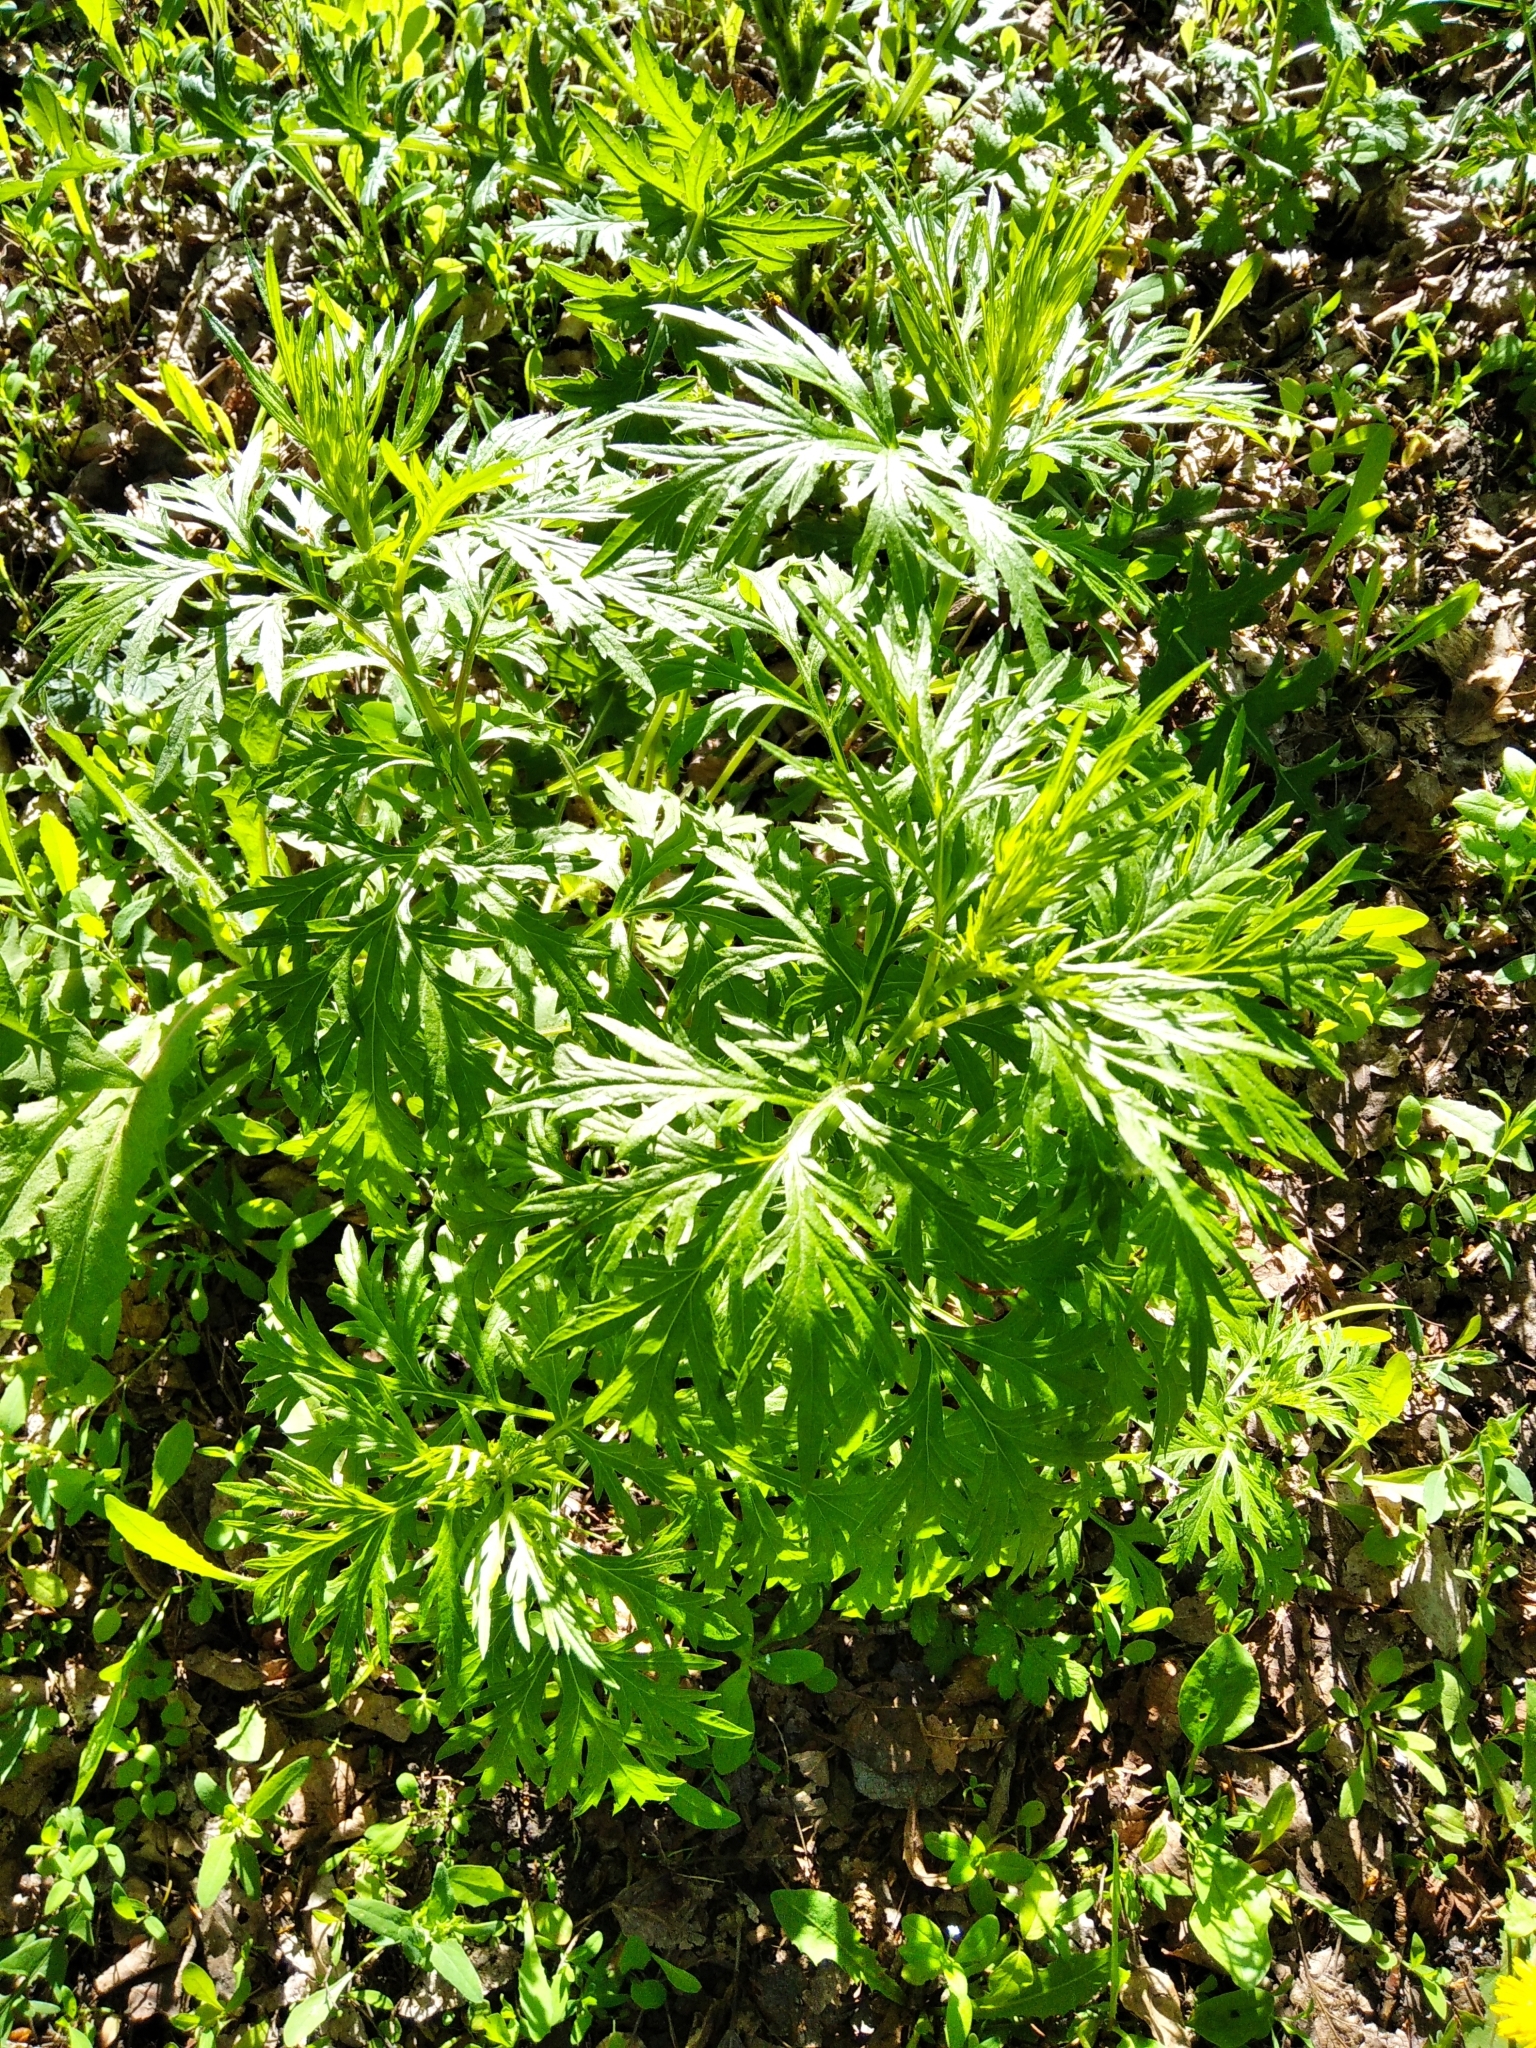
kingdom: Plantae
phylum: Tracheophyta
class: Magnoliopsida
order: Asterales
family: Asteraceae
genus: Artemisia
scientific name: Artemisia vulgaris
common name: Mugwort
